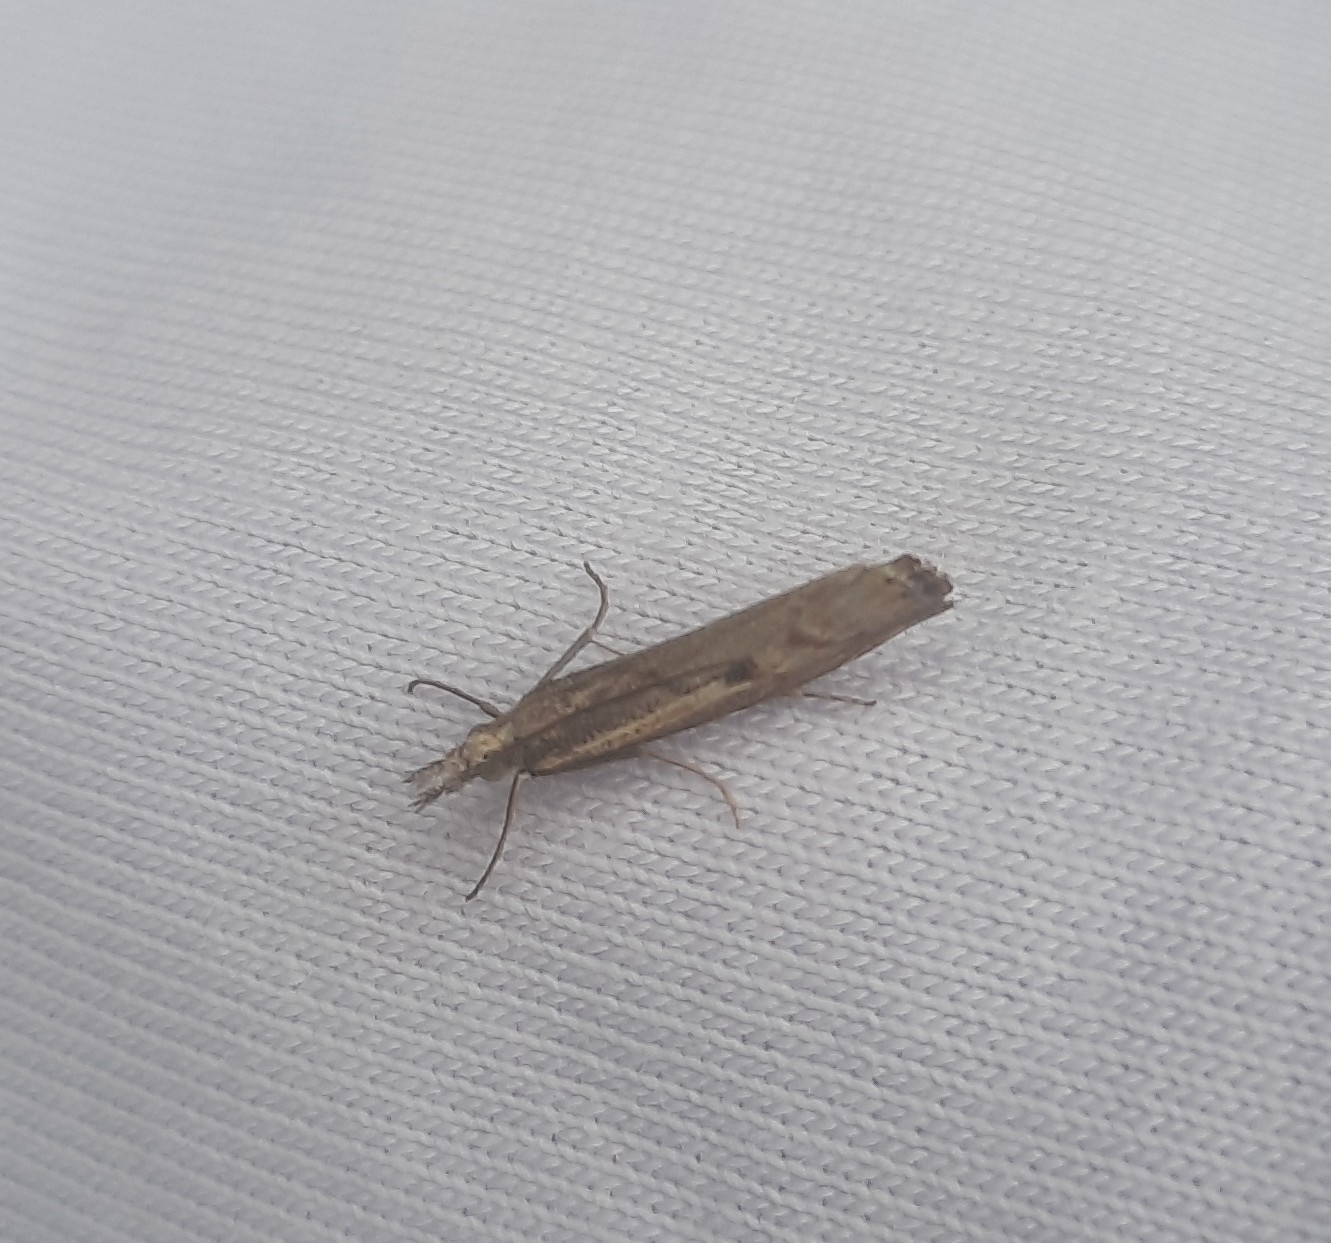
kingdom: Animalia
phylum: Arthropoda
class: Insecta
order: Lepidoptera
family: Crambidae
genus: Agriphila
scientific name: Agriphila geniculea
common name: Elbow-stripe grass-veneer
